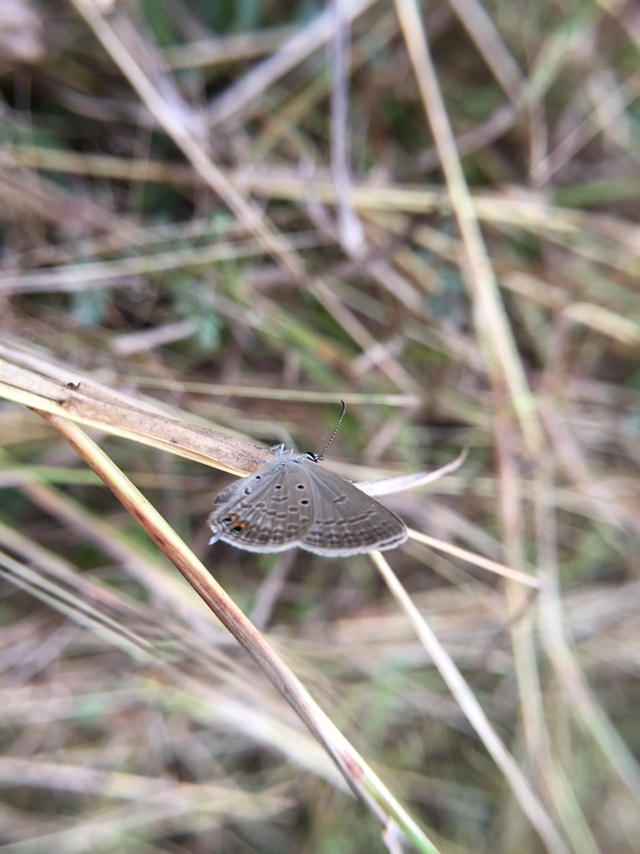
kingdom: Animalia
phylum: Arthropoda
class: Insecta
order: Lepidoptera
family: Lycaenidae
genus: Euchrysops
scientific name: Euchrysops cnejus
